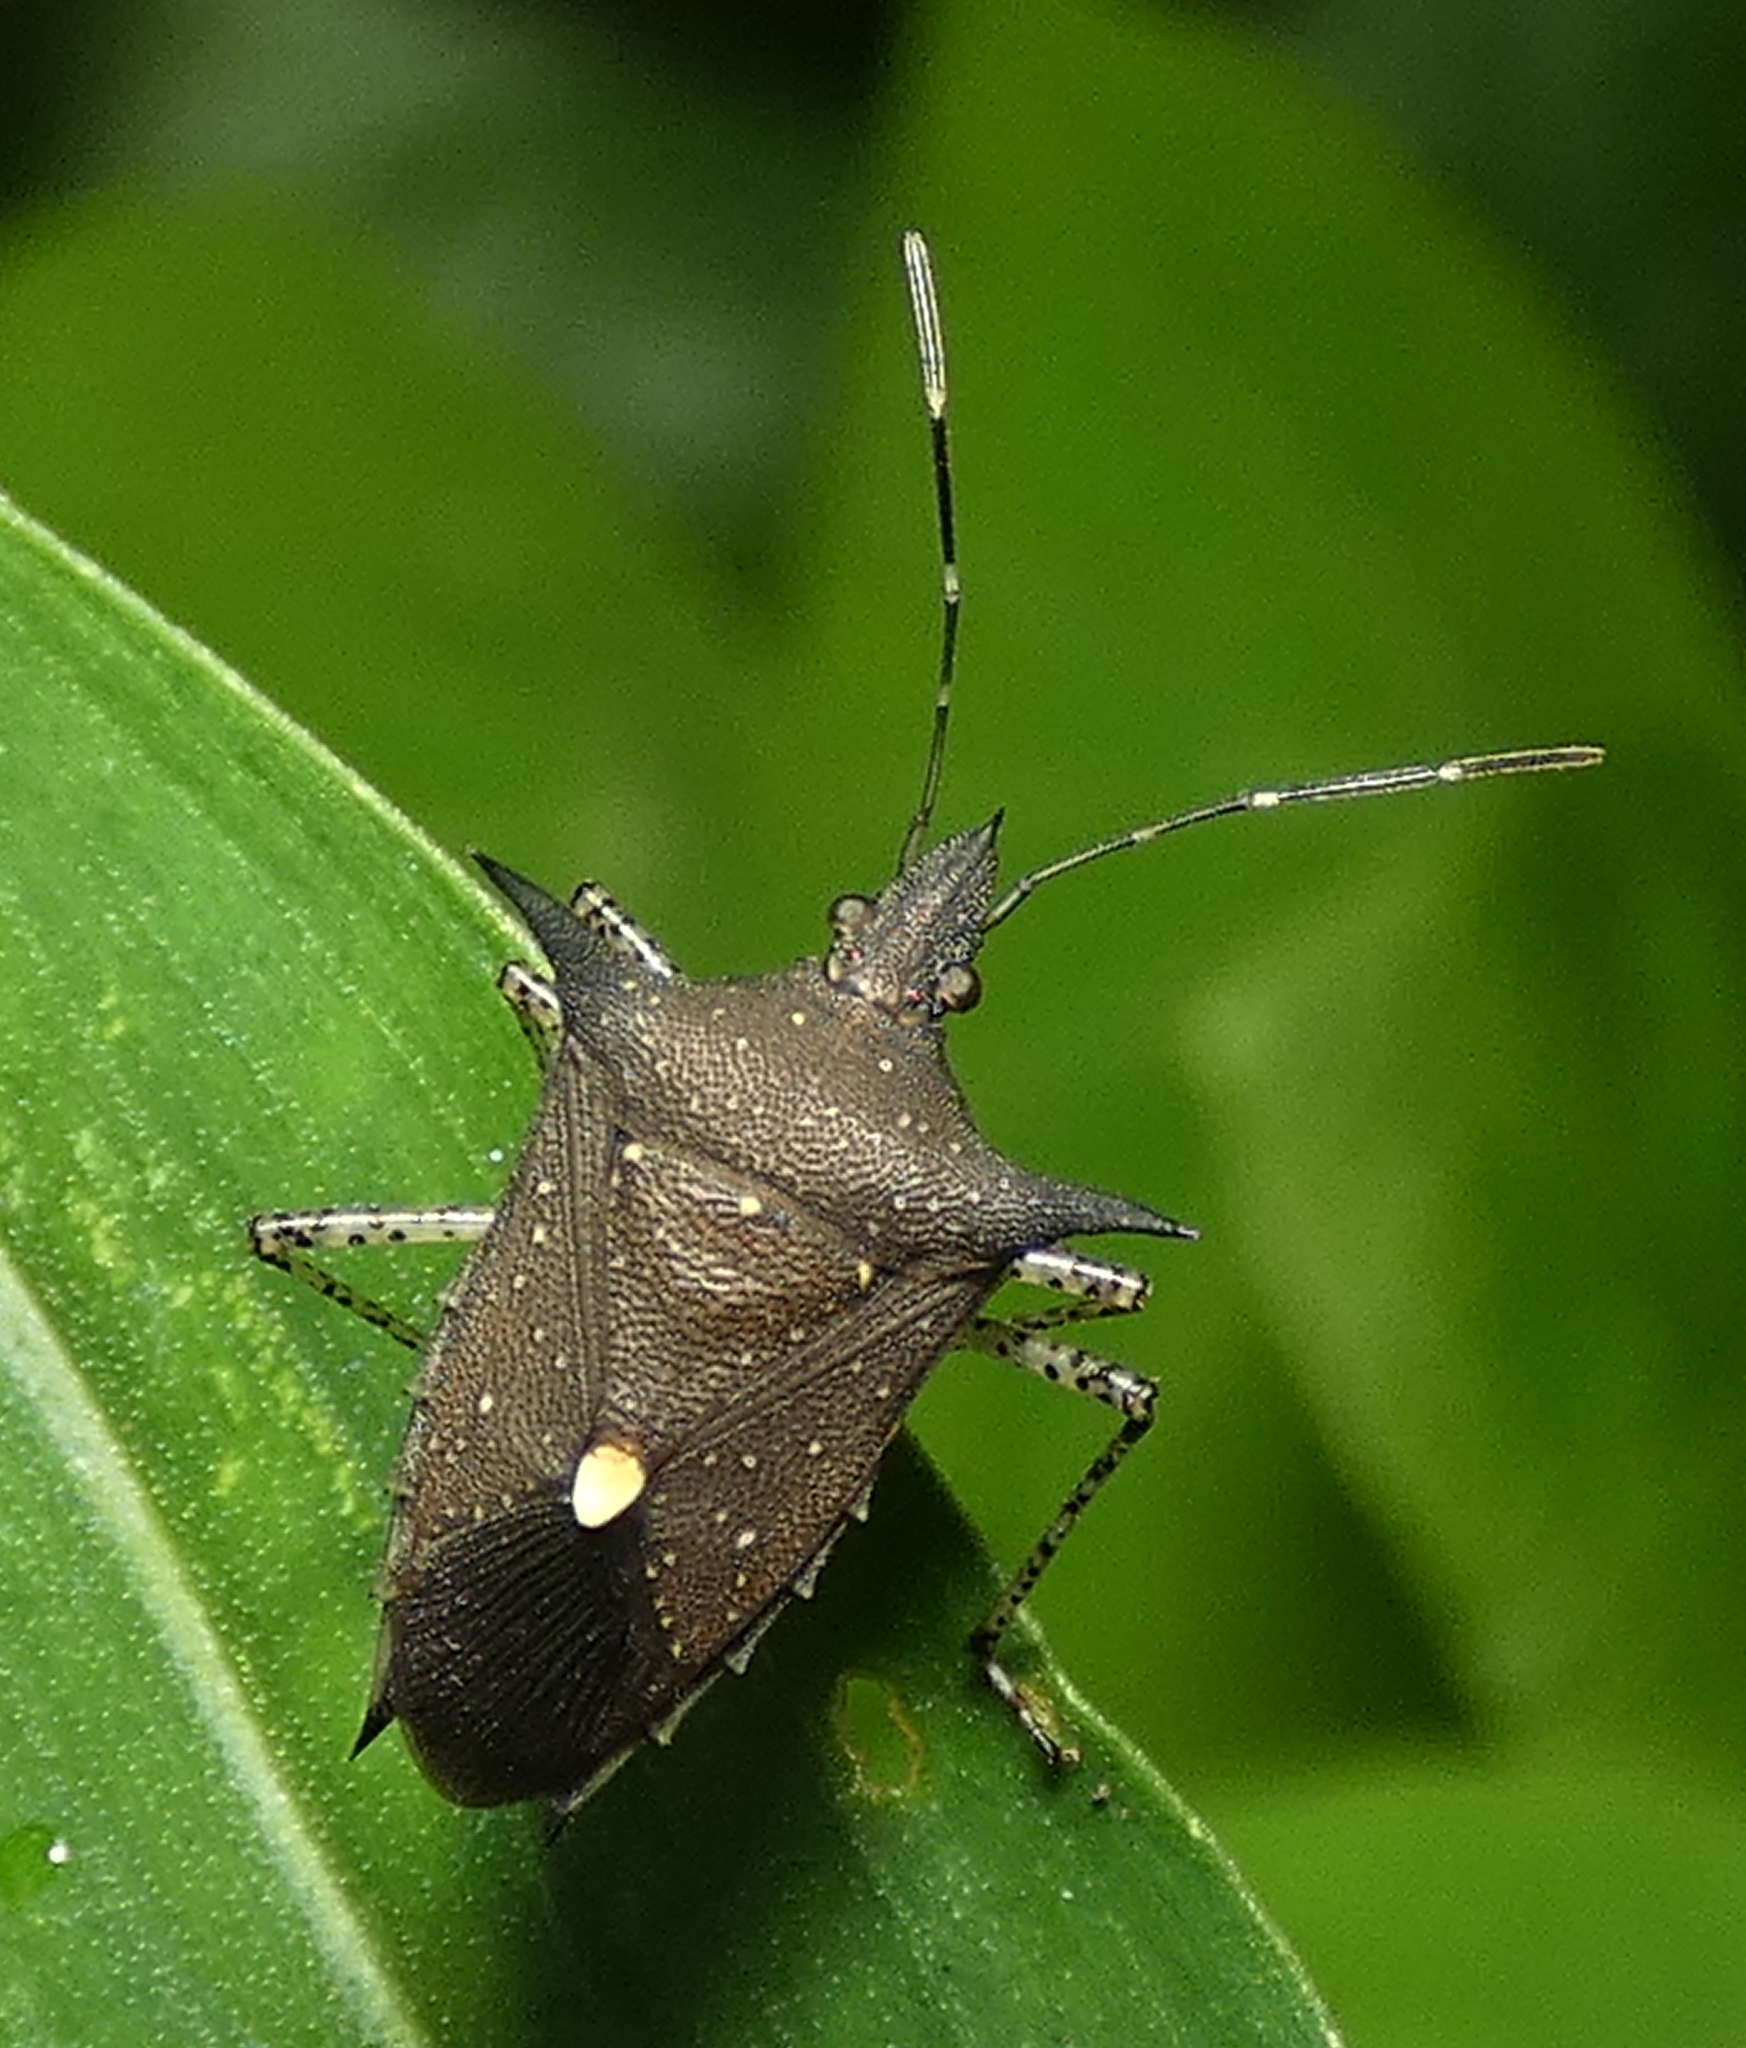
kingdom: Animalia
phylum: Arthropoda
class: Insecta
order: Hemiptera
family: Pentatomidae
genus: Proxys
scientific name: Proxys albopunctulatus
